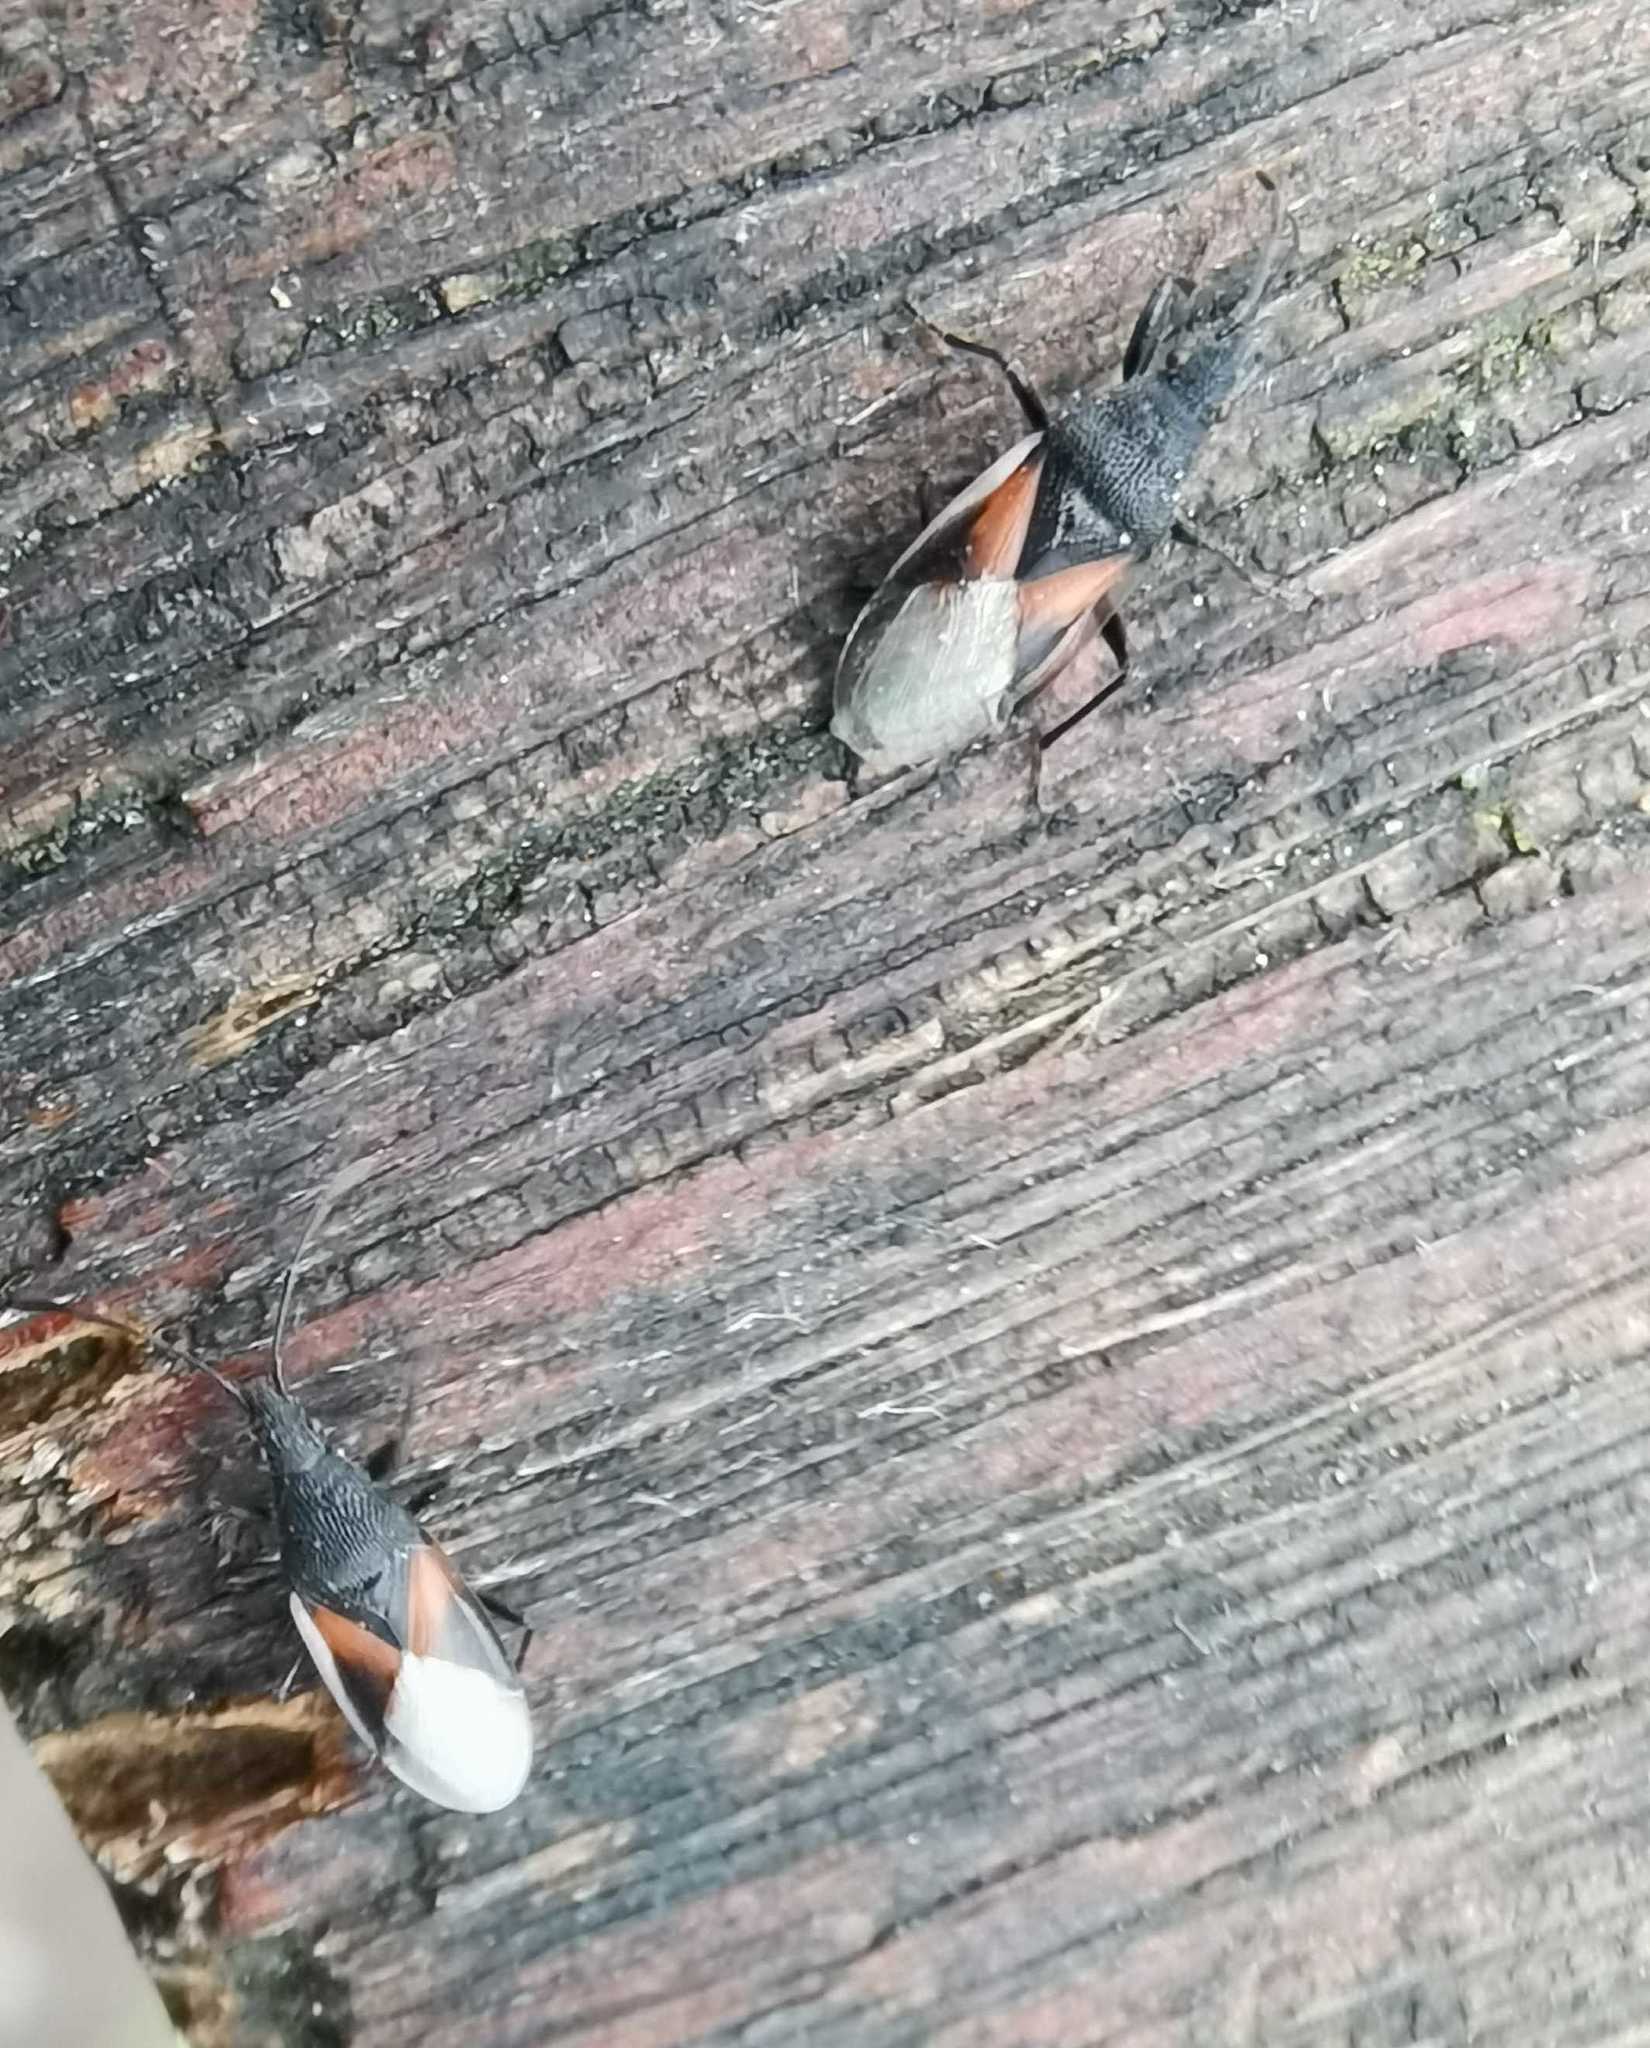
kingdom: Animalia
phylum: Arthropoda
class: Insecta
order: Hemiptera
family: Oxycarenidae
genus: Oxycarenus
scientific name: Oxycarenus lavaterae
